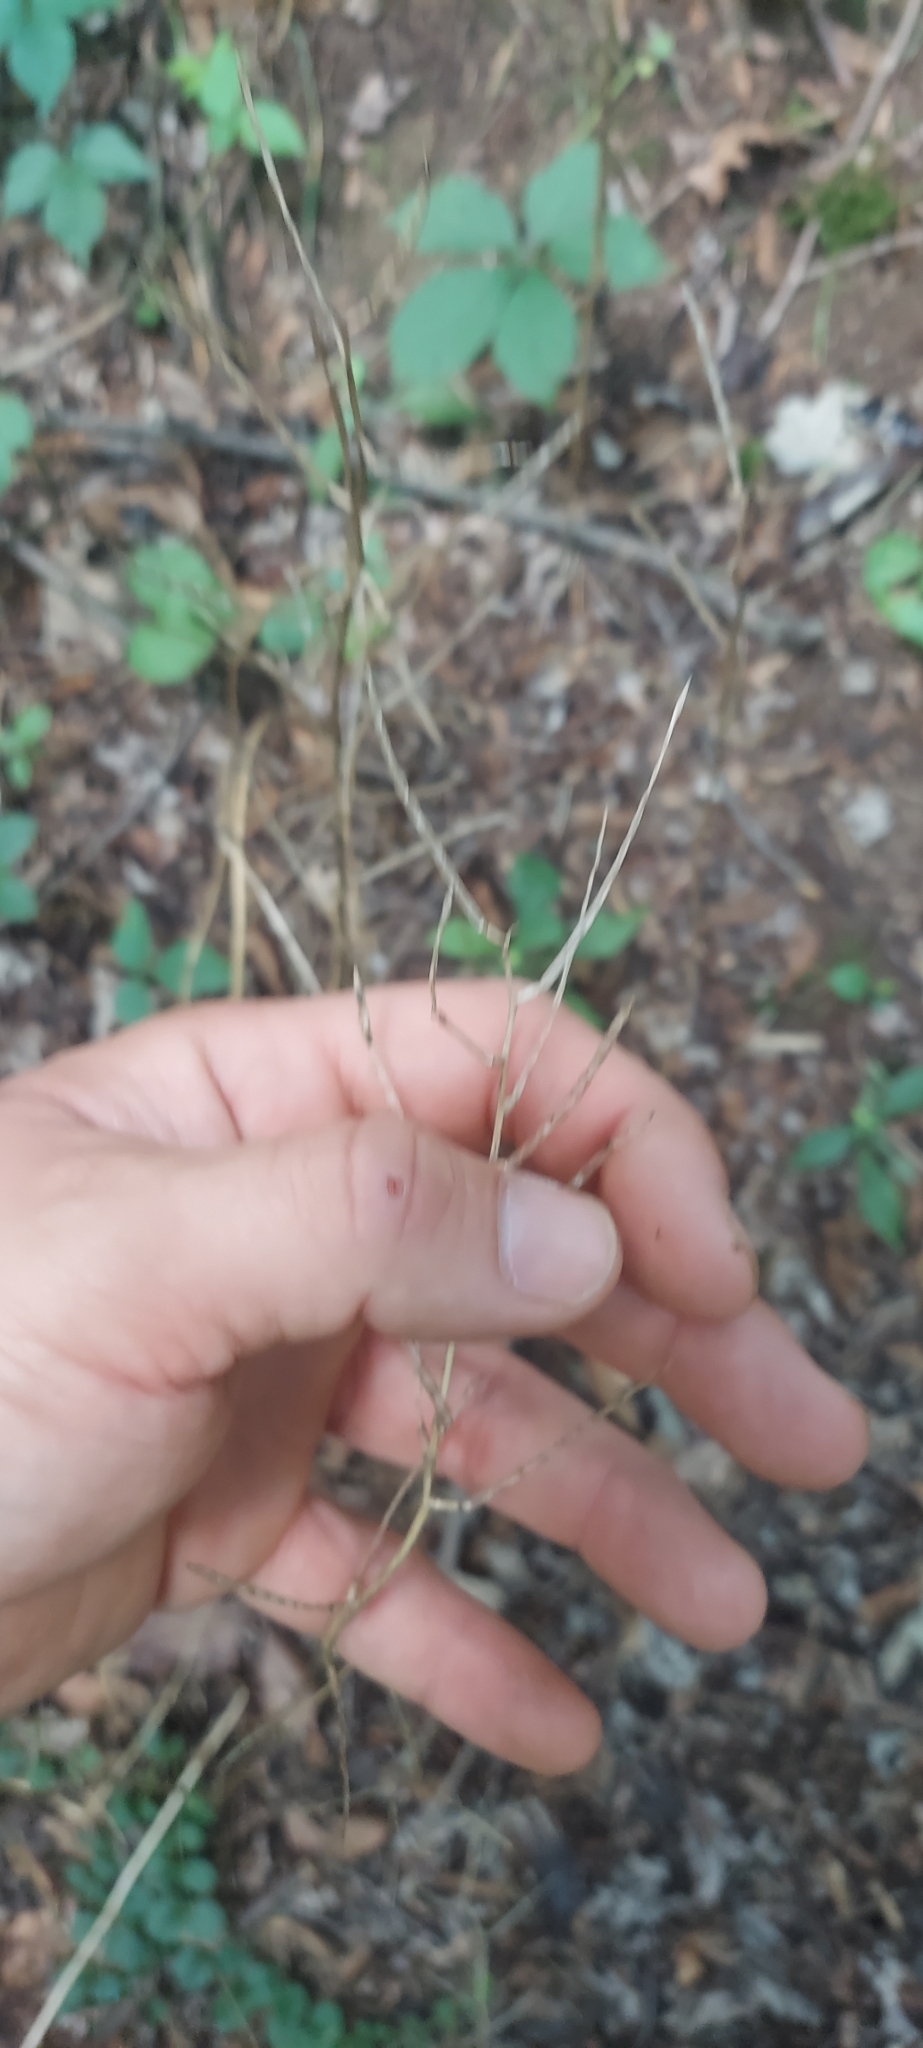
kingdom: Plantae
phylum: Tracheophyta
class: Magnoliopsida
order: Brassicales
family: Brassicaceae
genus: Alliaria
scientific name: Alliaria petiolata
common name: Garlic mustard
